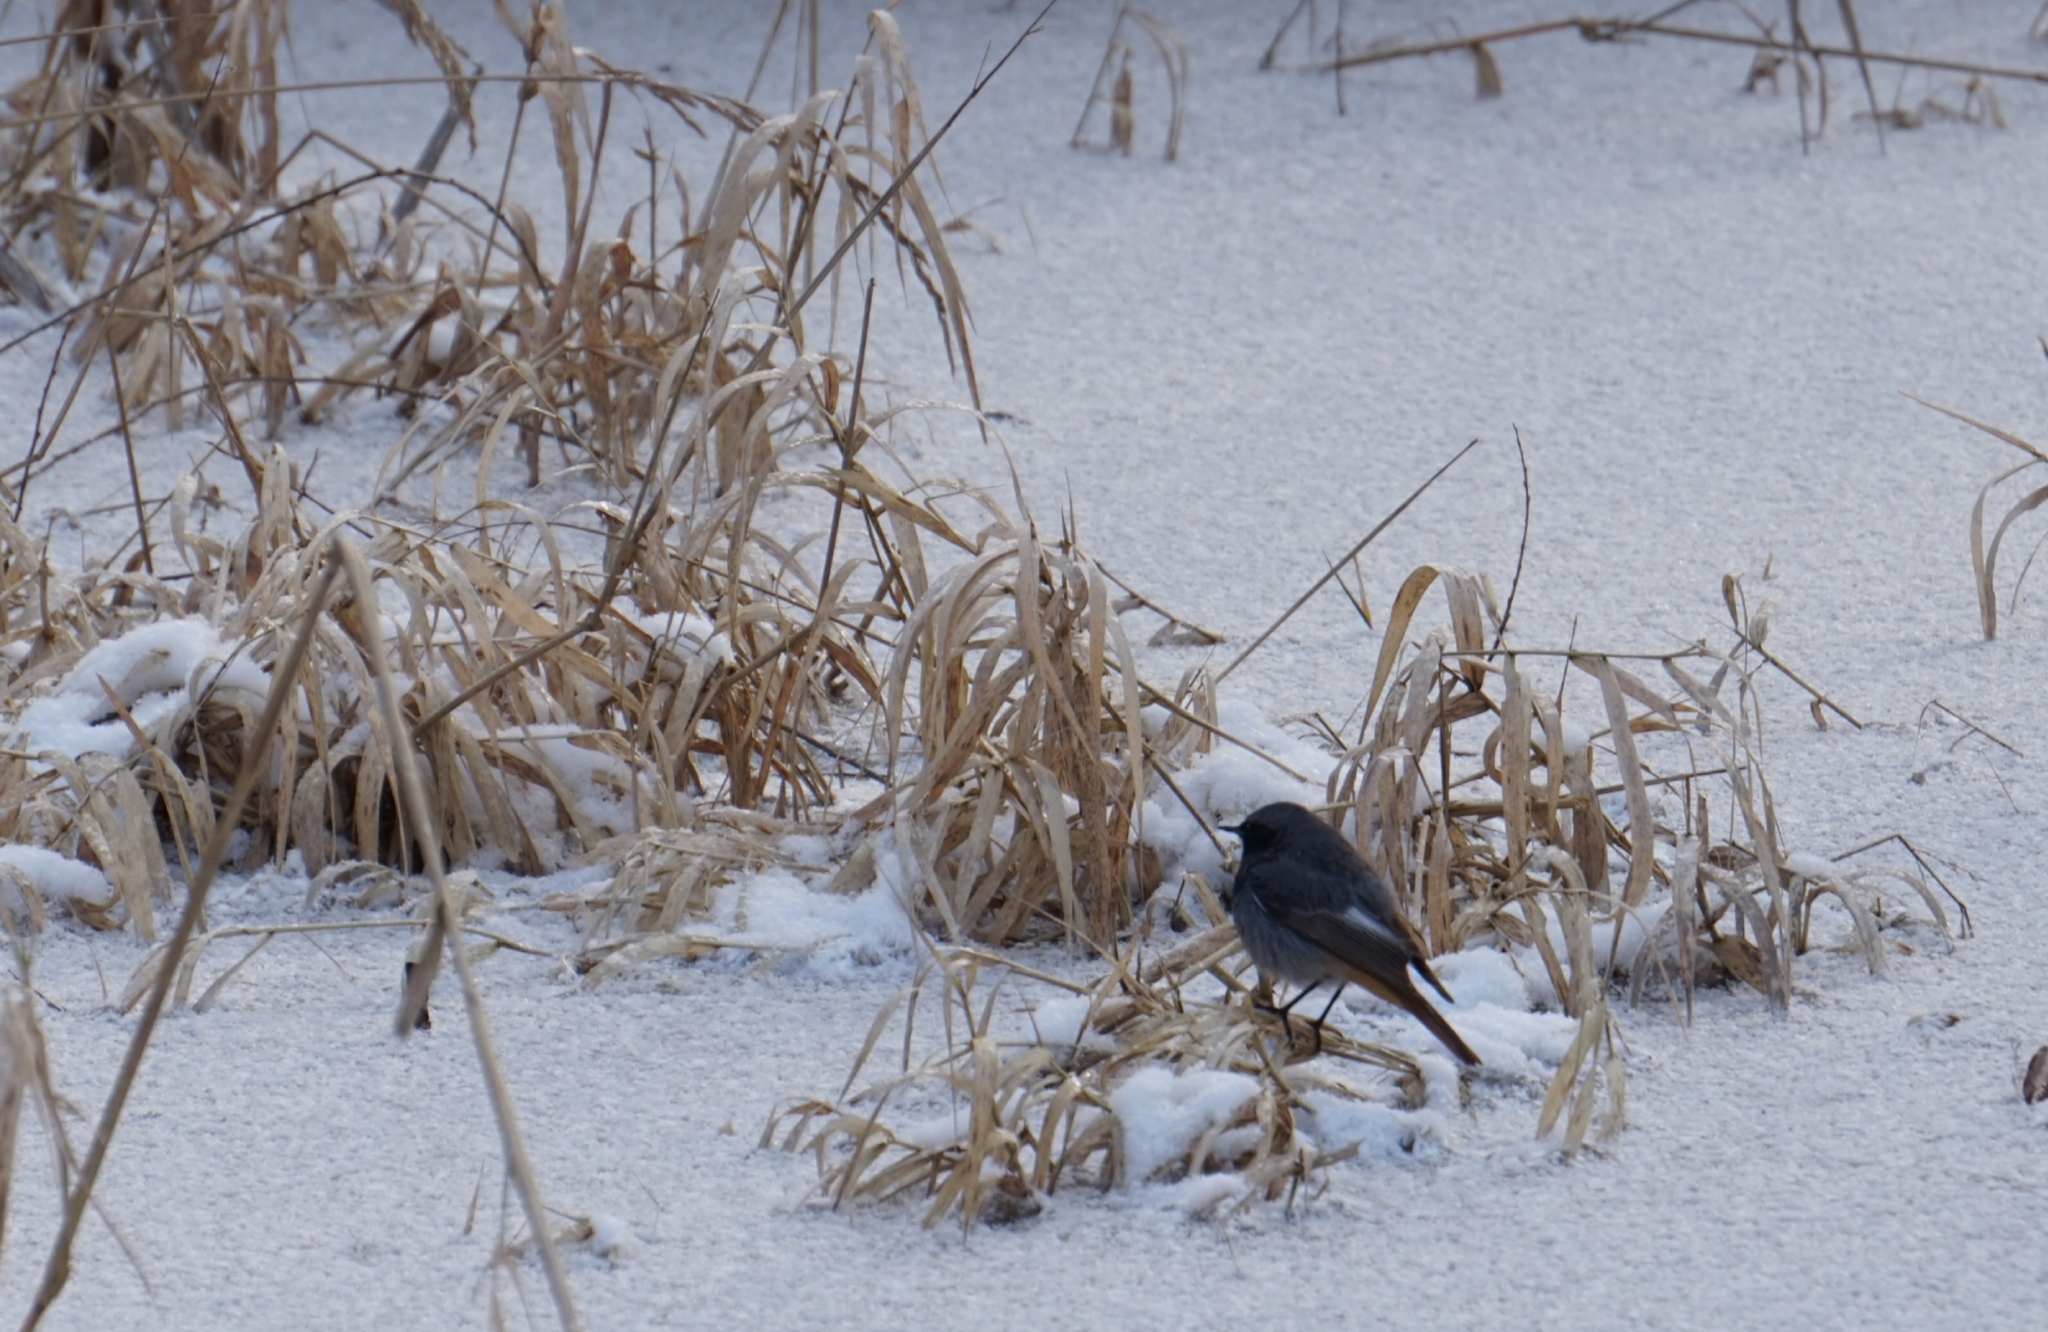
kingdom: Animalia
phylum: Chordata
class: Aves
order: Passeriformes
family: Muscicapidae
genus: Phoenicurus
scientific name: Phoenicurus ochruros
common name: Black redstart
